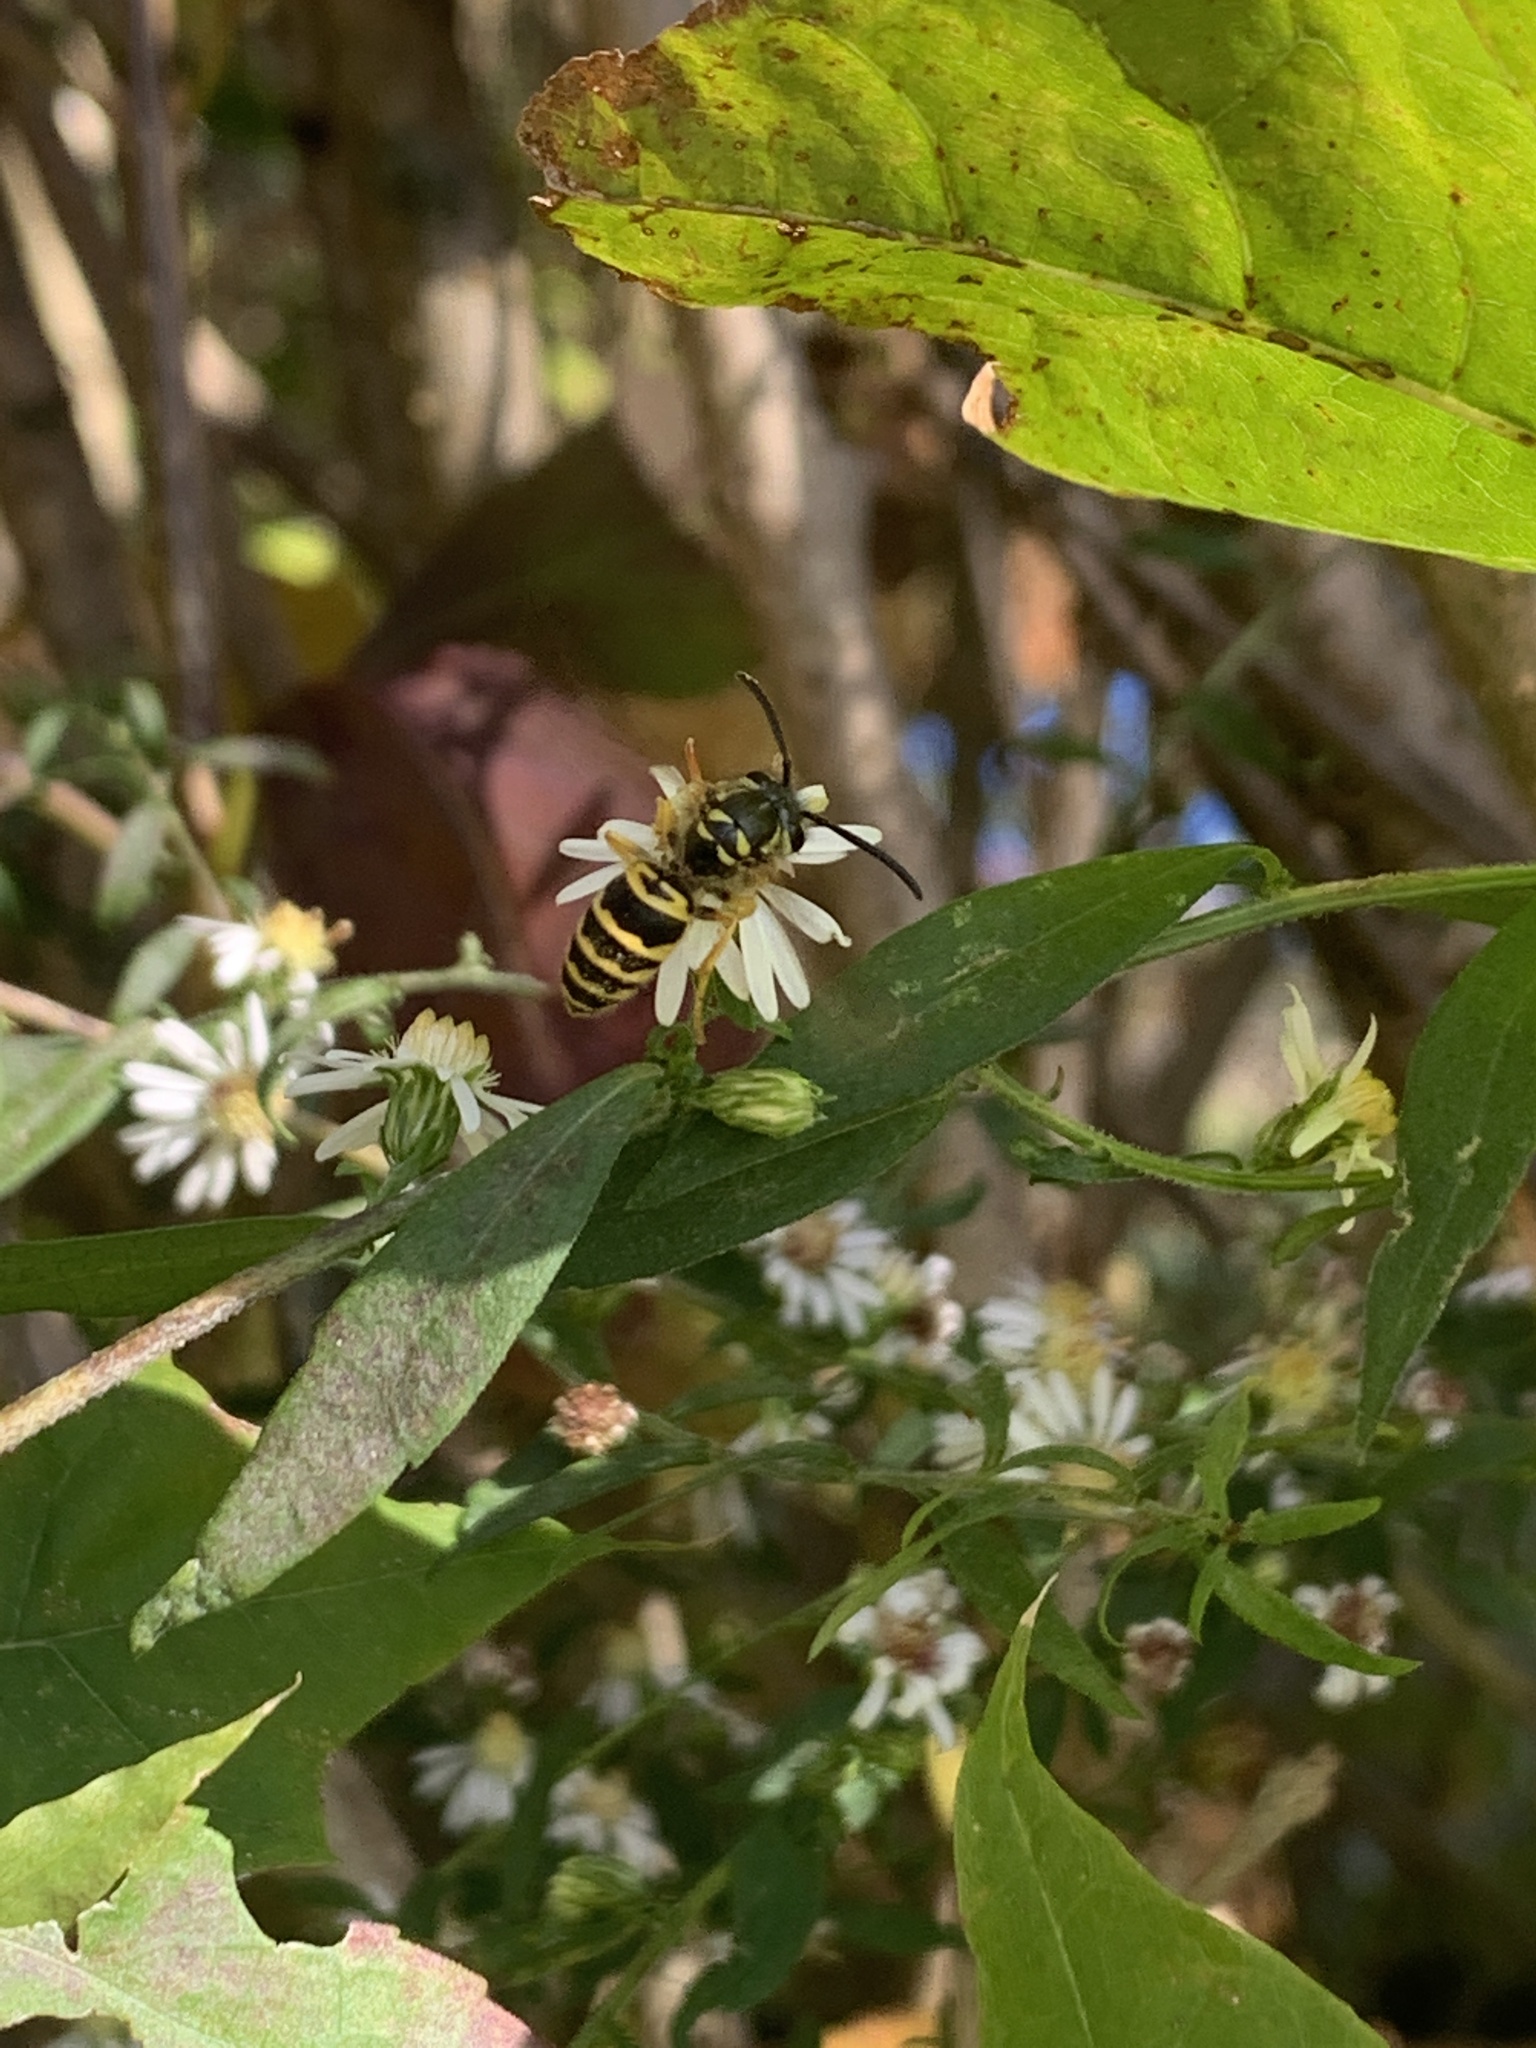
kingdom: Animalia
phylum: Arthropoda
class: Insecta
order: Hymenoptera
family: Vespidae
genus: Vespula
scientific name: Vespula maculifrons
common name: Eastern yellowjacket
